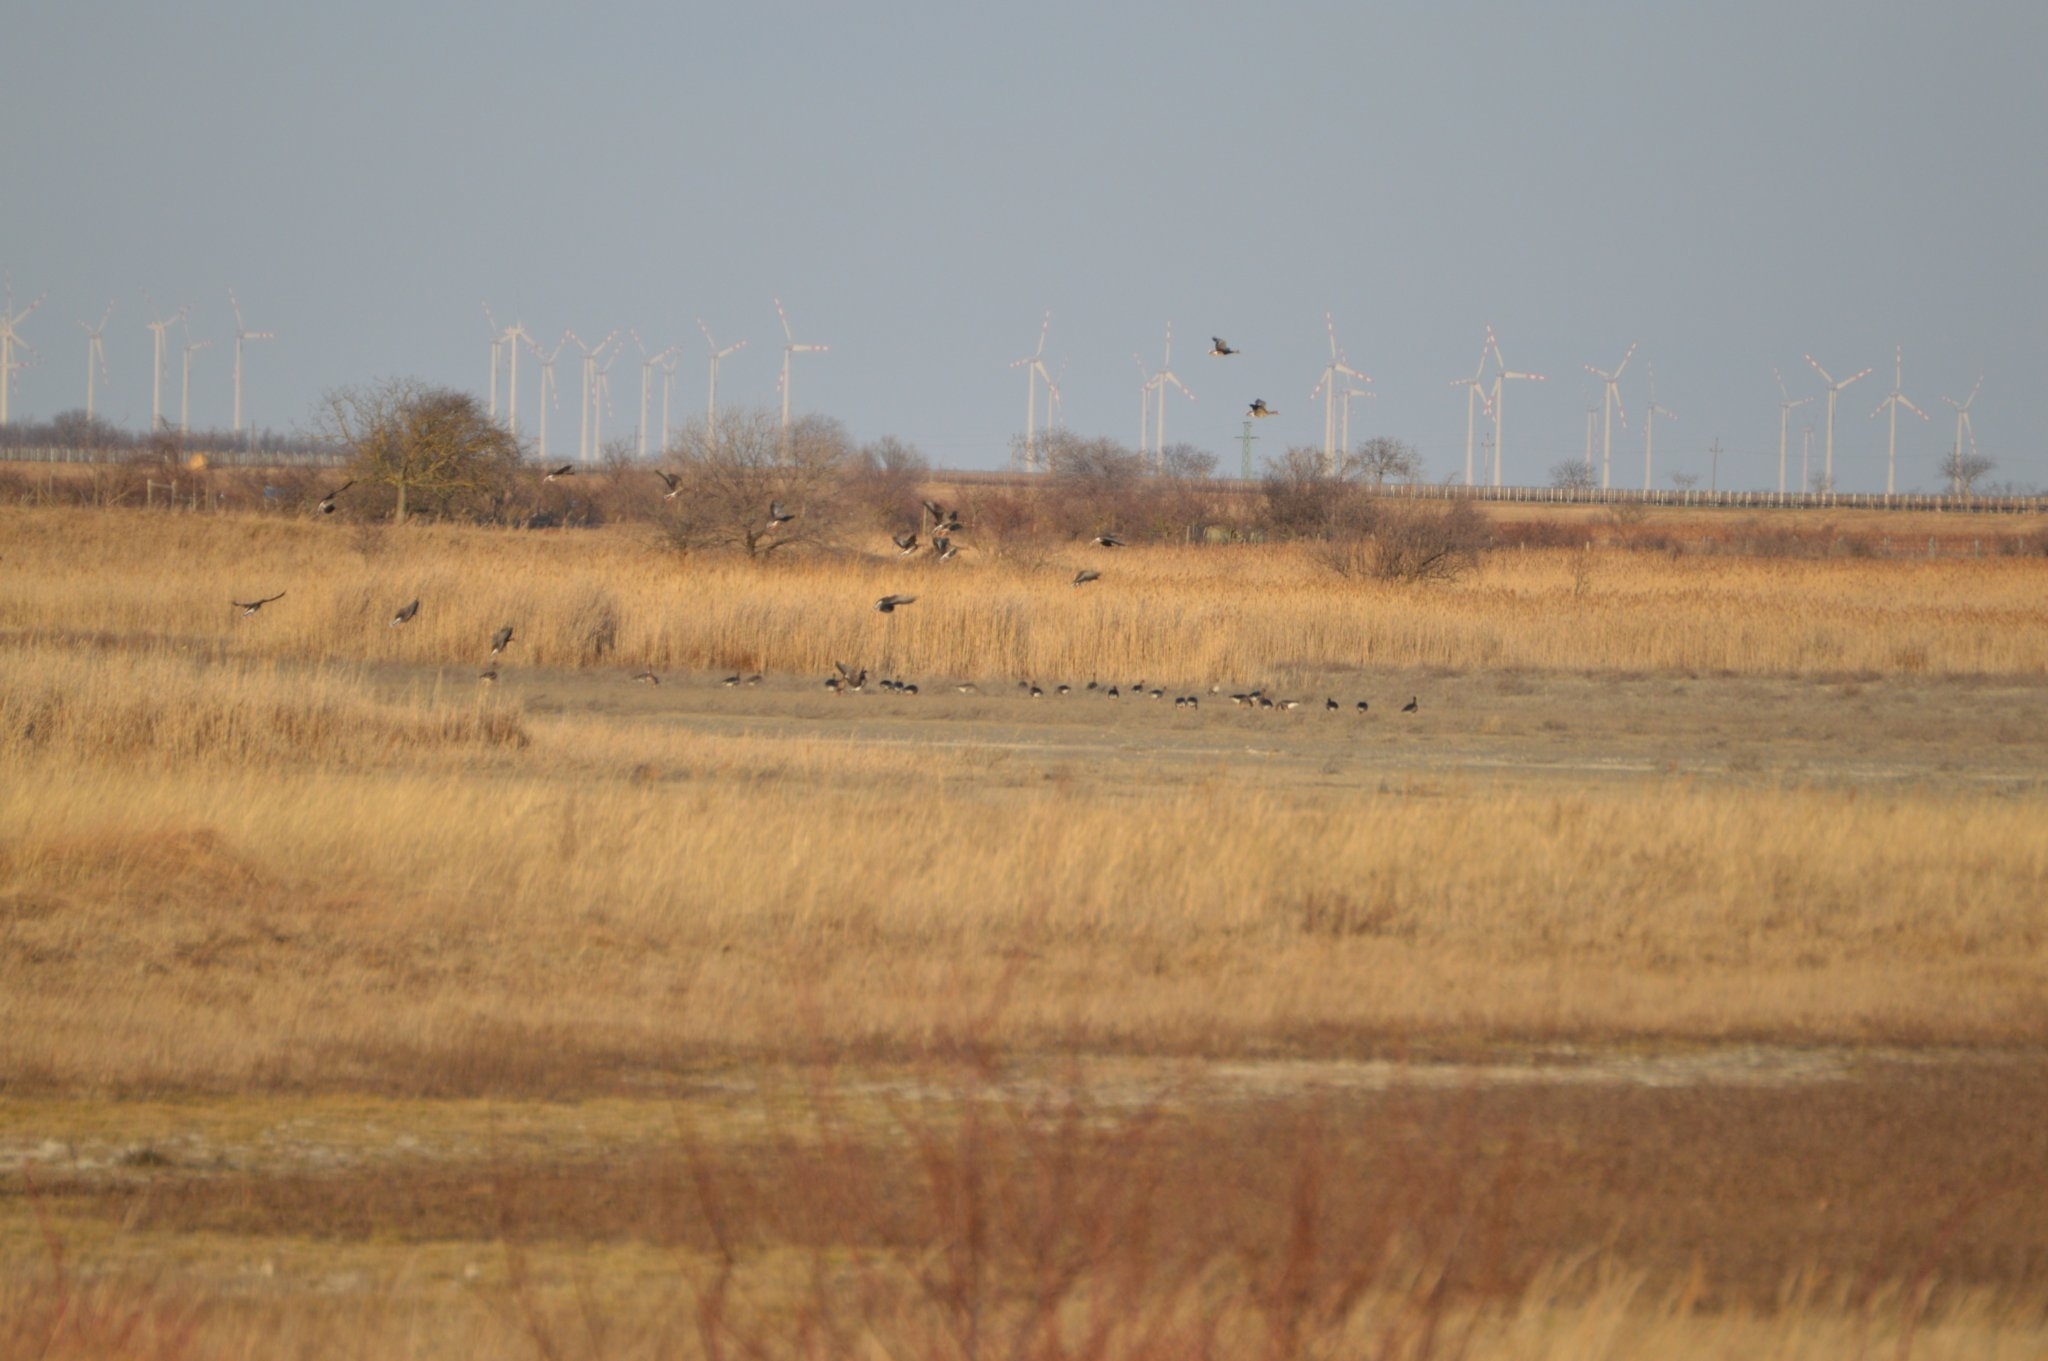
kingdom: Animalia
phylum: Chordata
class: Aves
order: Anseriformes
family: Anatidae
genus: Anser
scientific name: Anser anser
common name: Greylag goose
